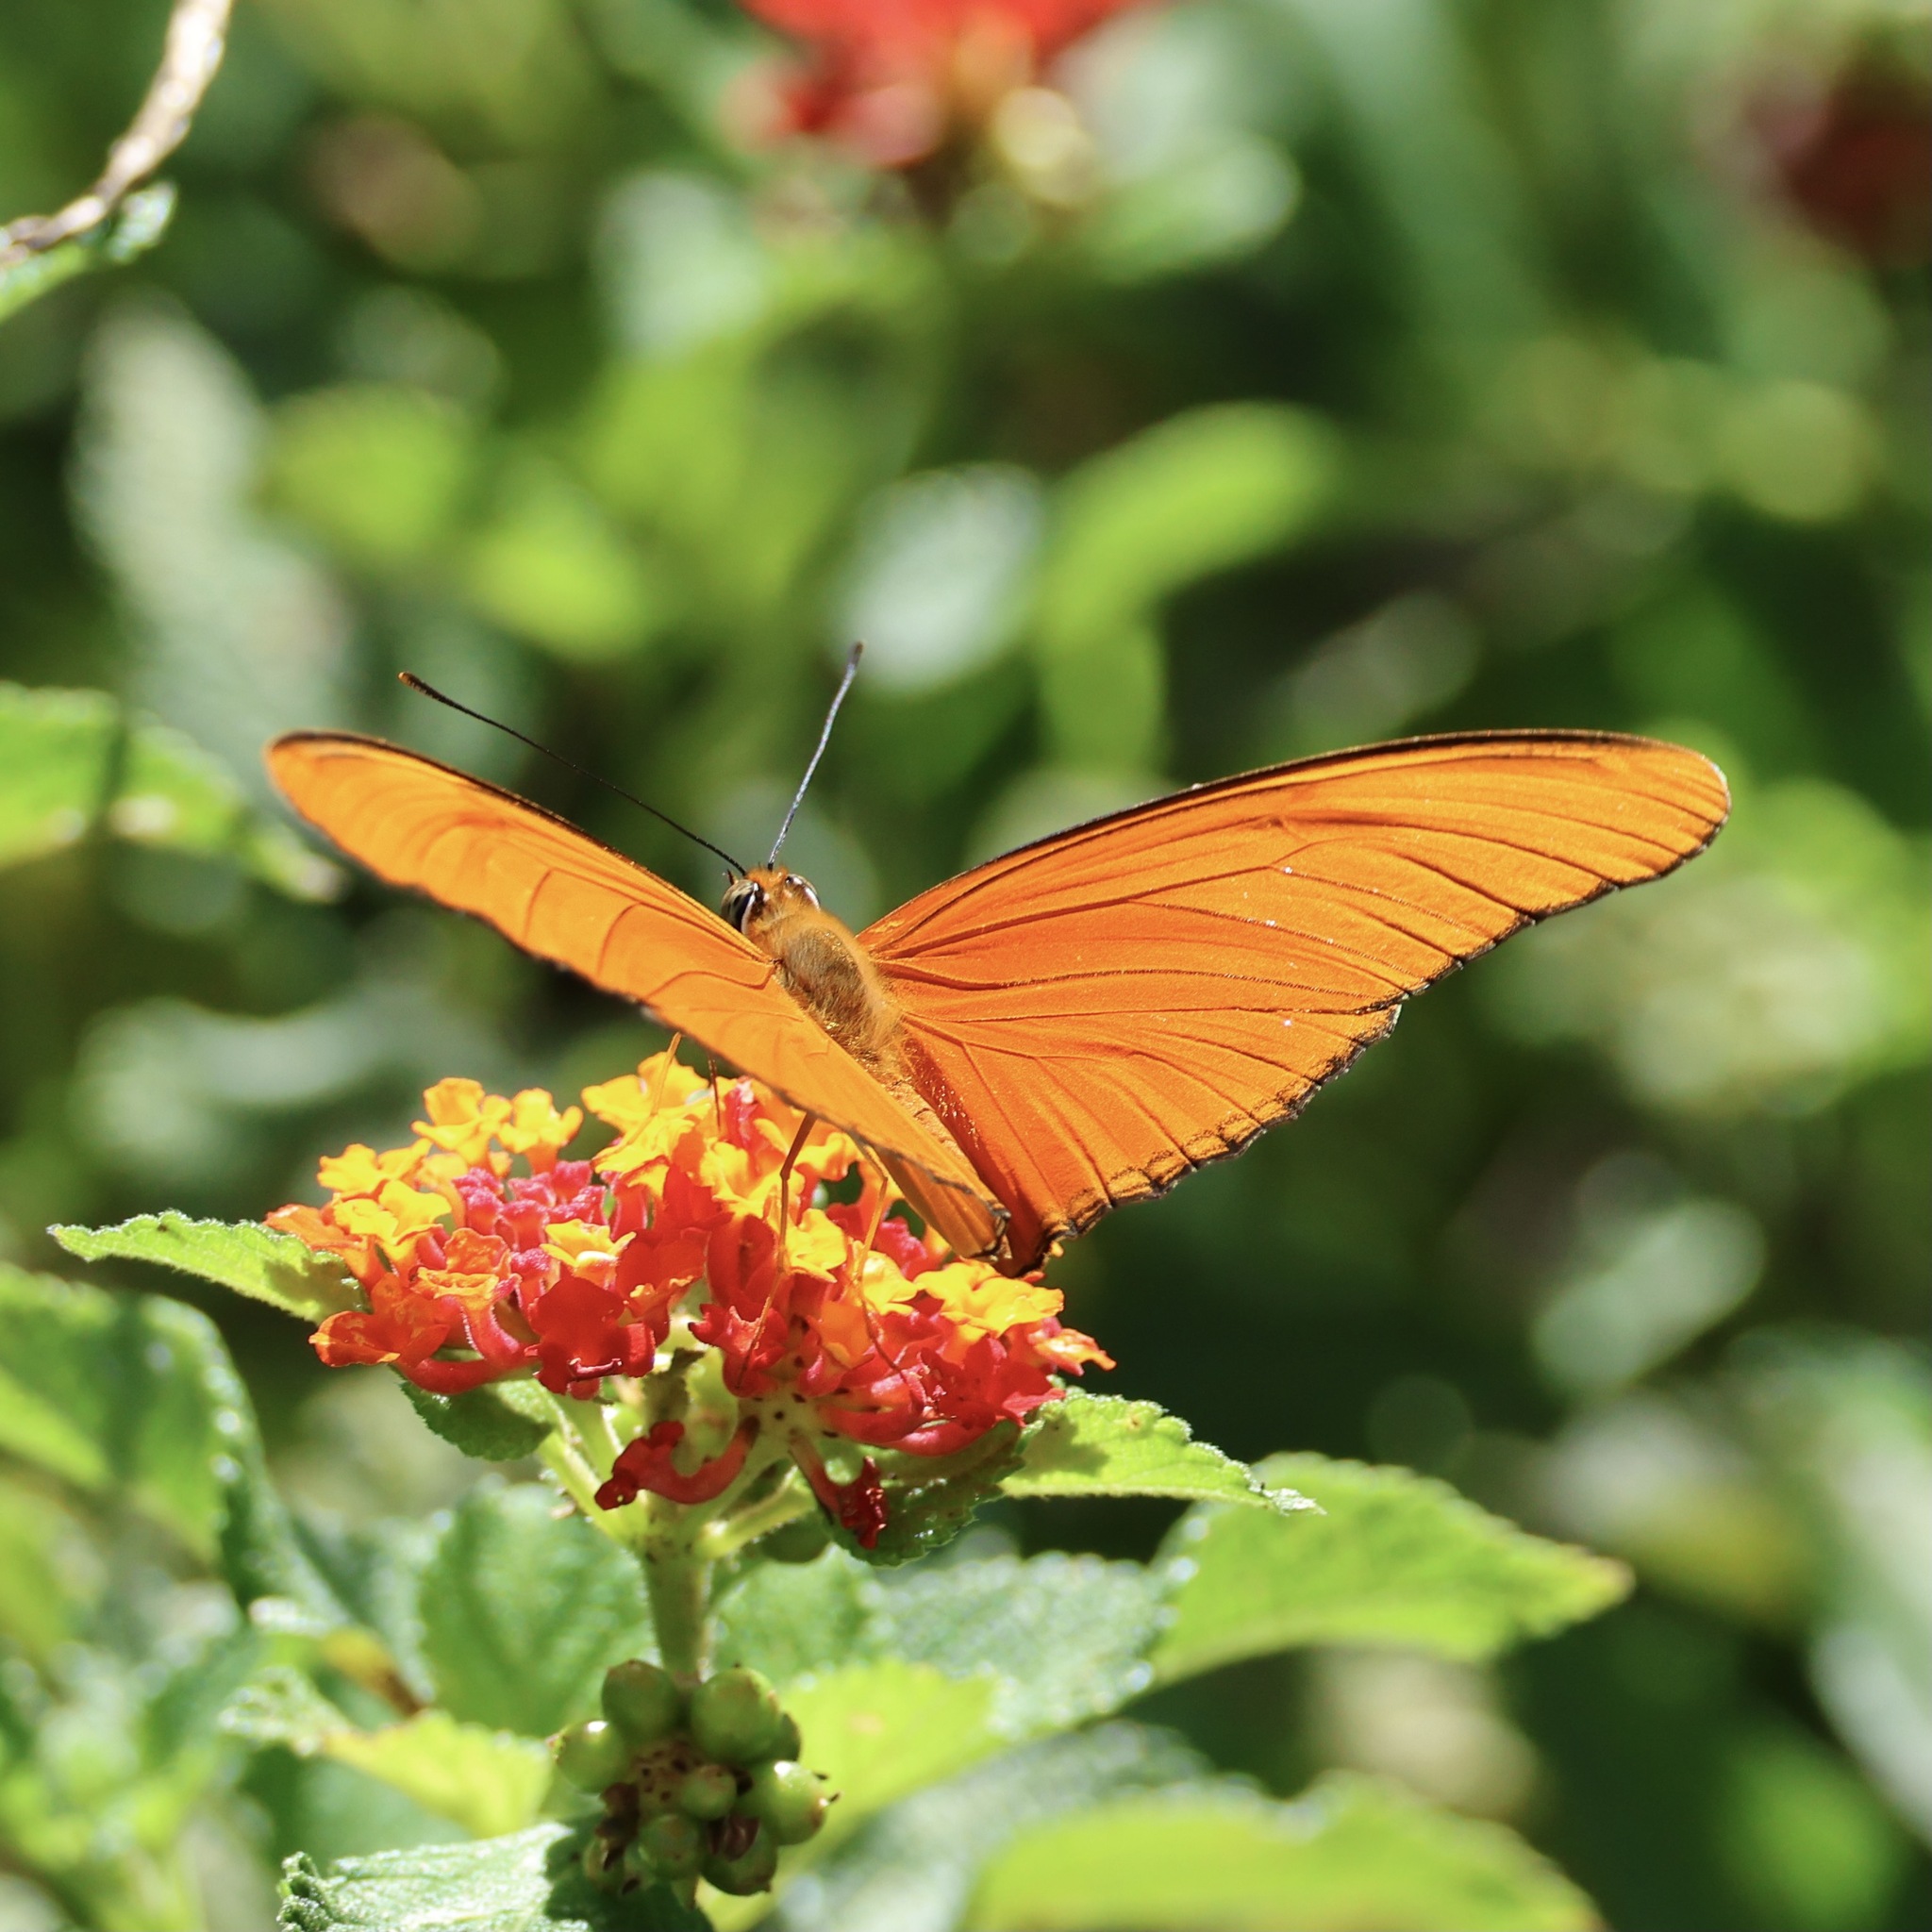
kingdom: Animalia
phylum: Arthropoda
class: Insecta
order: Lepidoptera
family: Nymphalidae
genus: Dryas
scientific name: Dryas iulia
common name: Flambeau
